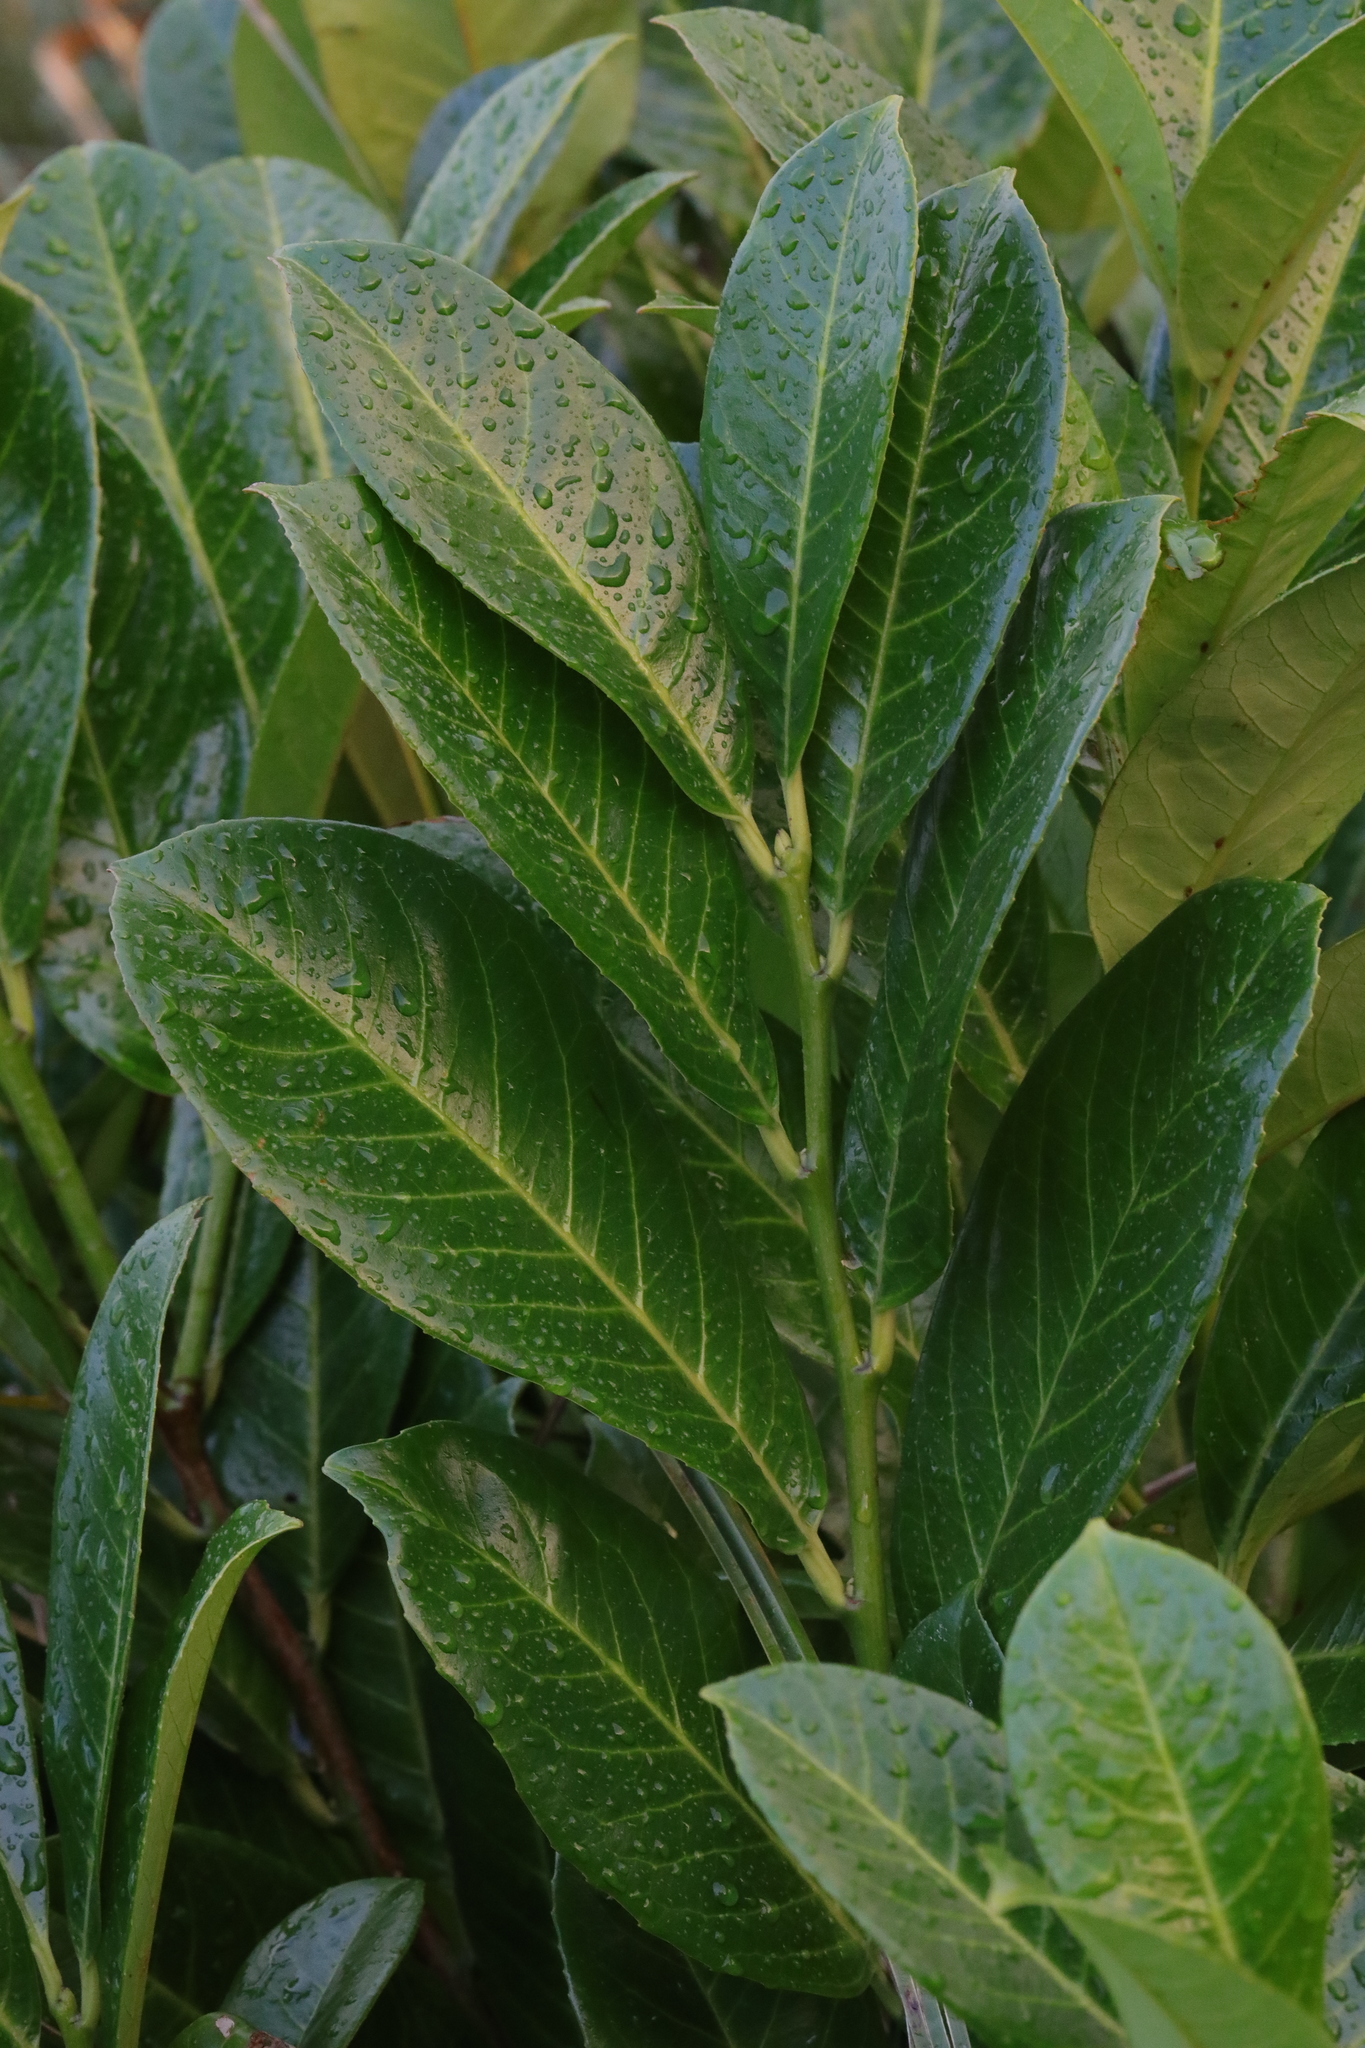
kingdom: Plantae
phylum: Tracheophyta
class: Magnoliopsida
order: Rosales
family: Rosaceae
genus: Prunus
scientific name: Prunus laurocerasus
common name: Cherry laurel
